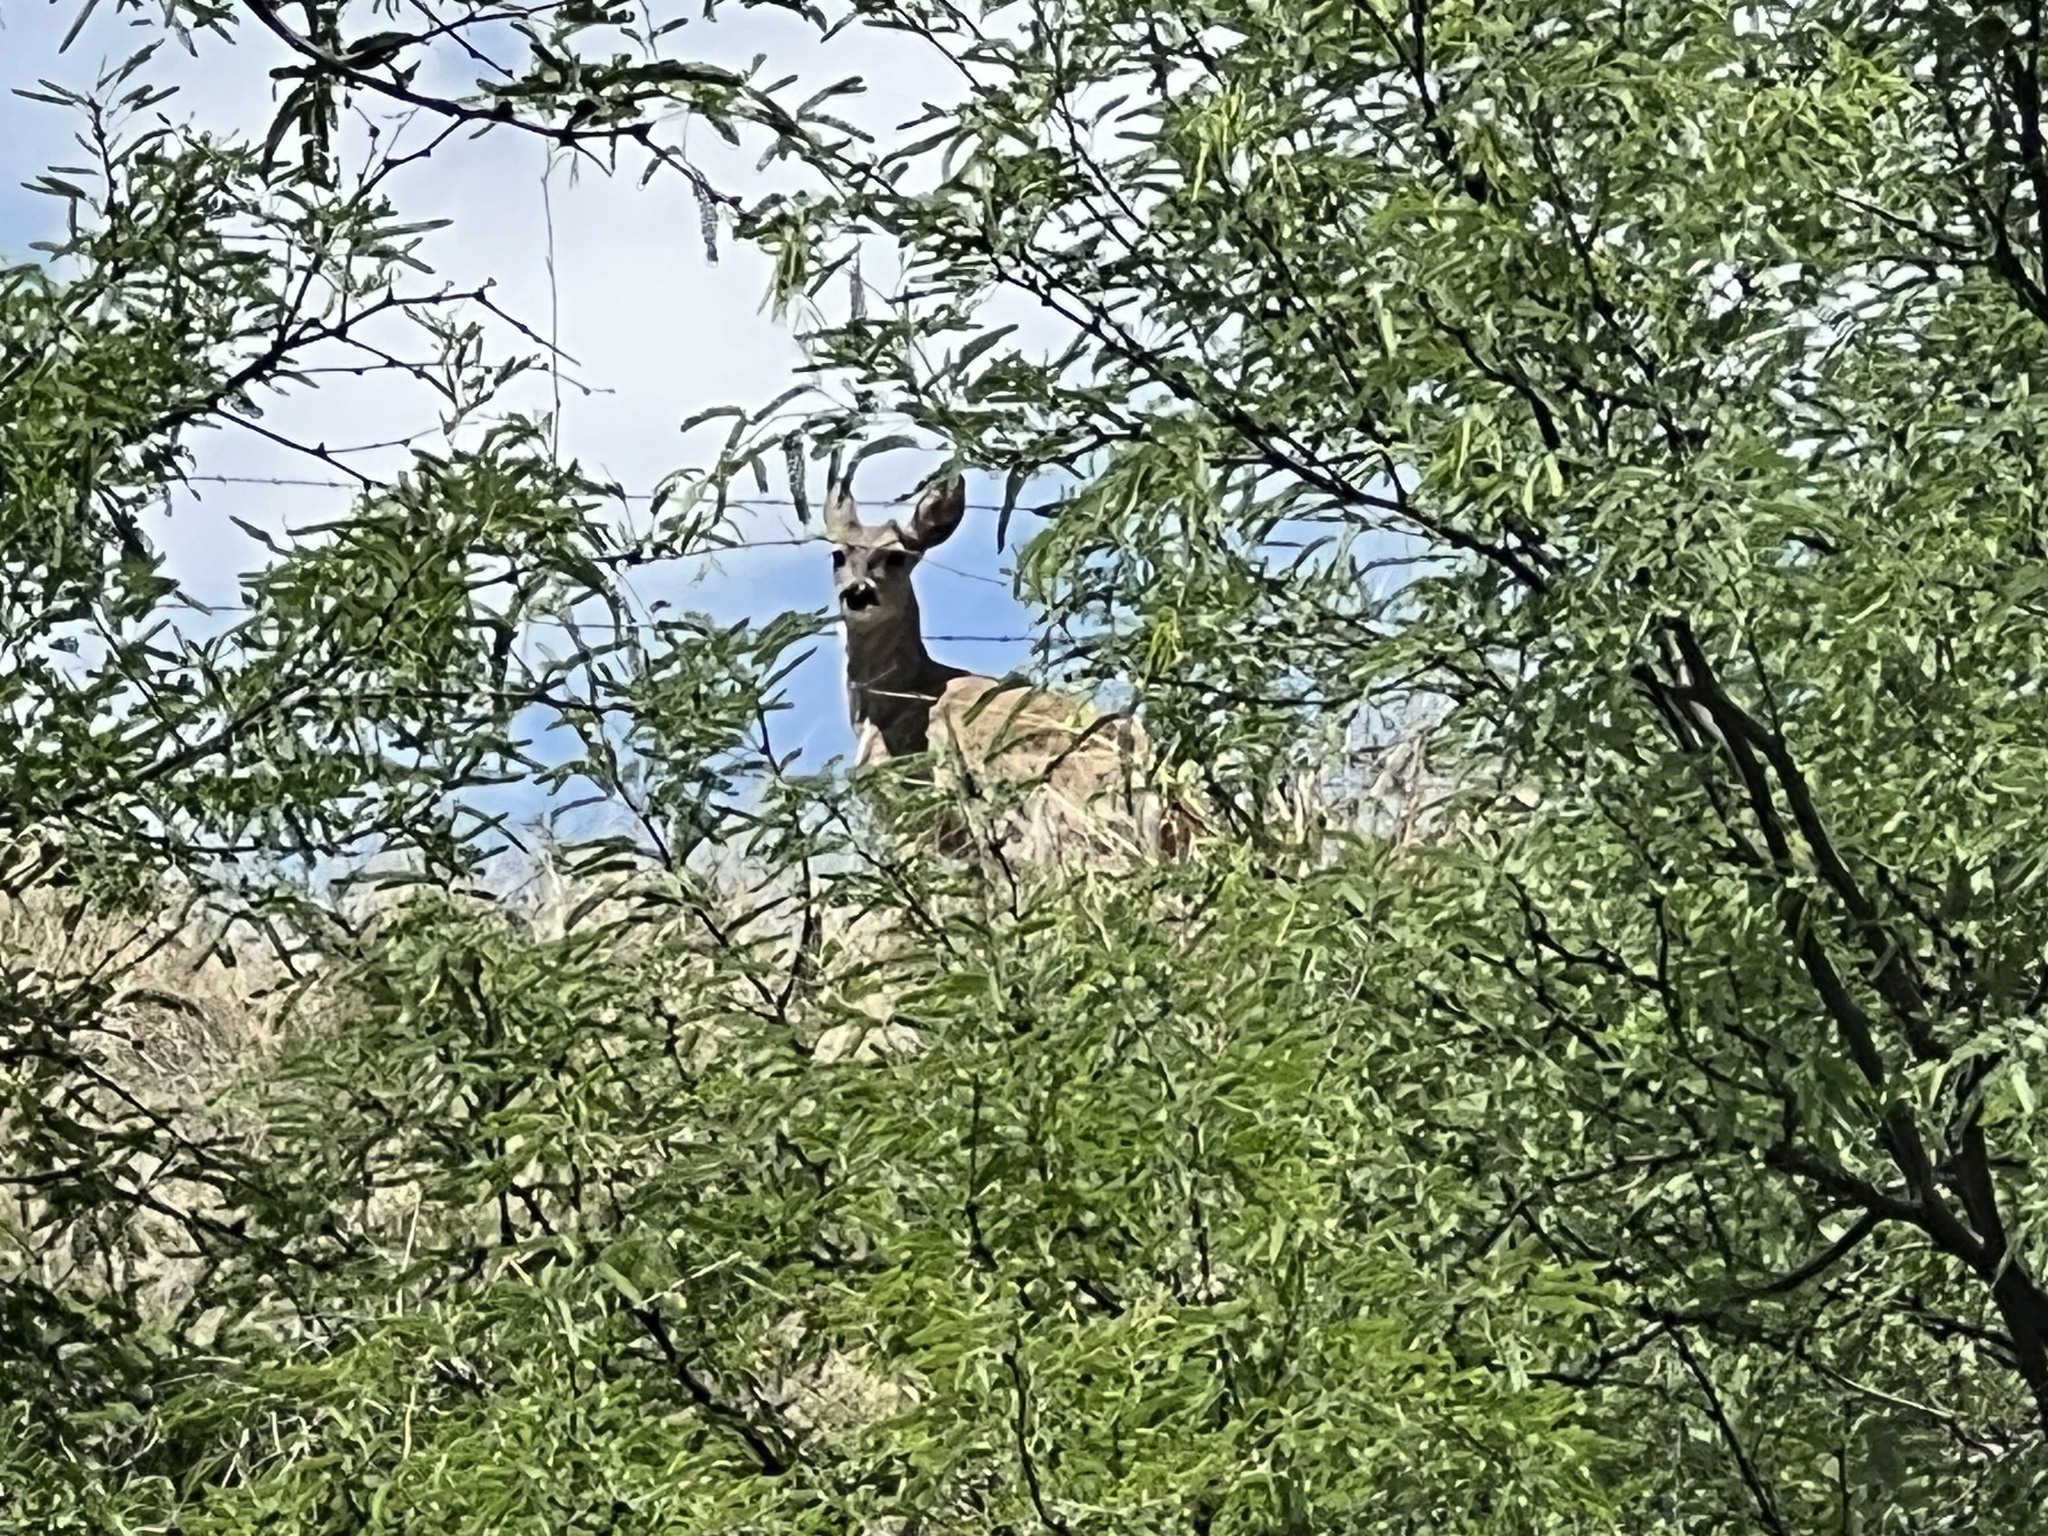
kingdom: Animalia
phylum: Chordata
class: Mammalia
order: Artiodactyla
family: Cervidae
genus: Odocoileus
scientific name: Odocoileus virginianus
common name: White-tailed deer
